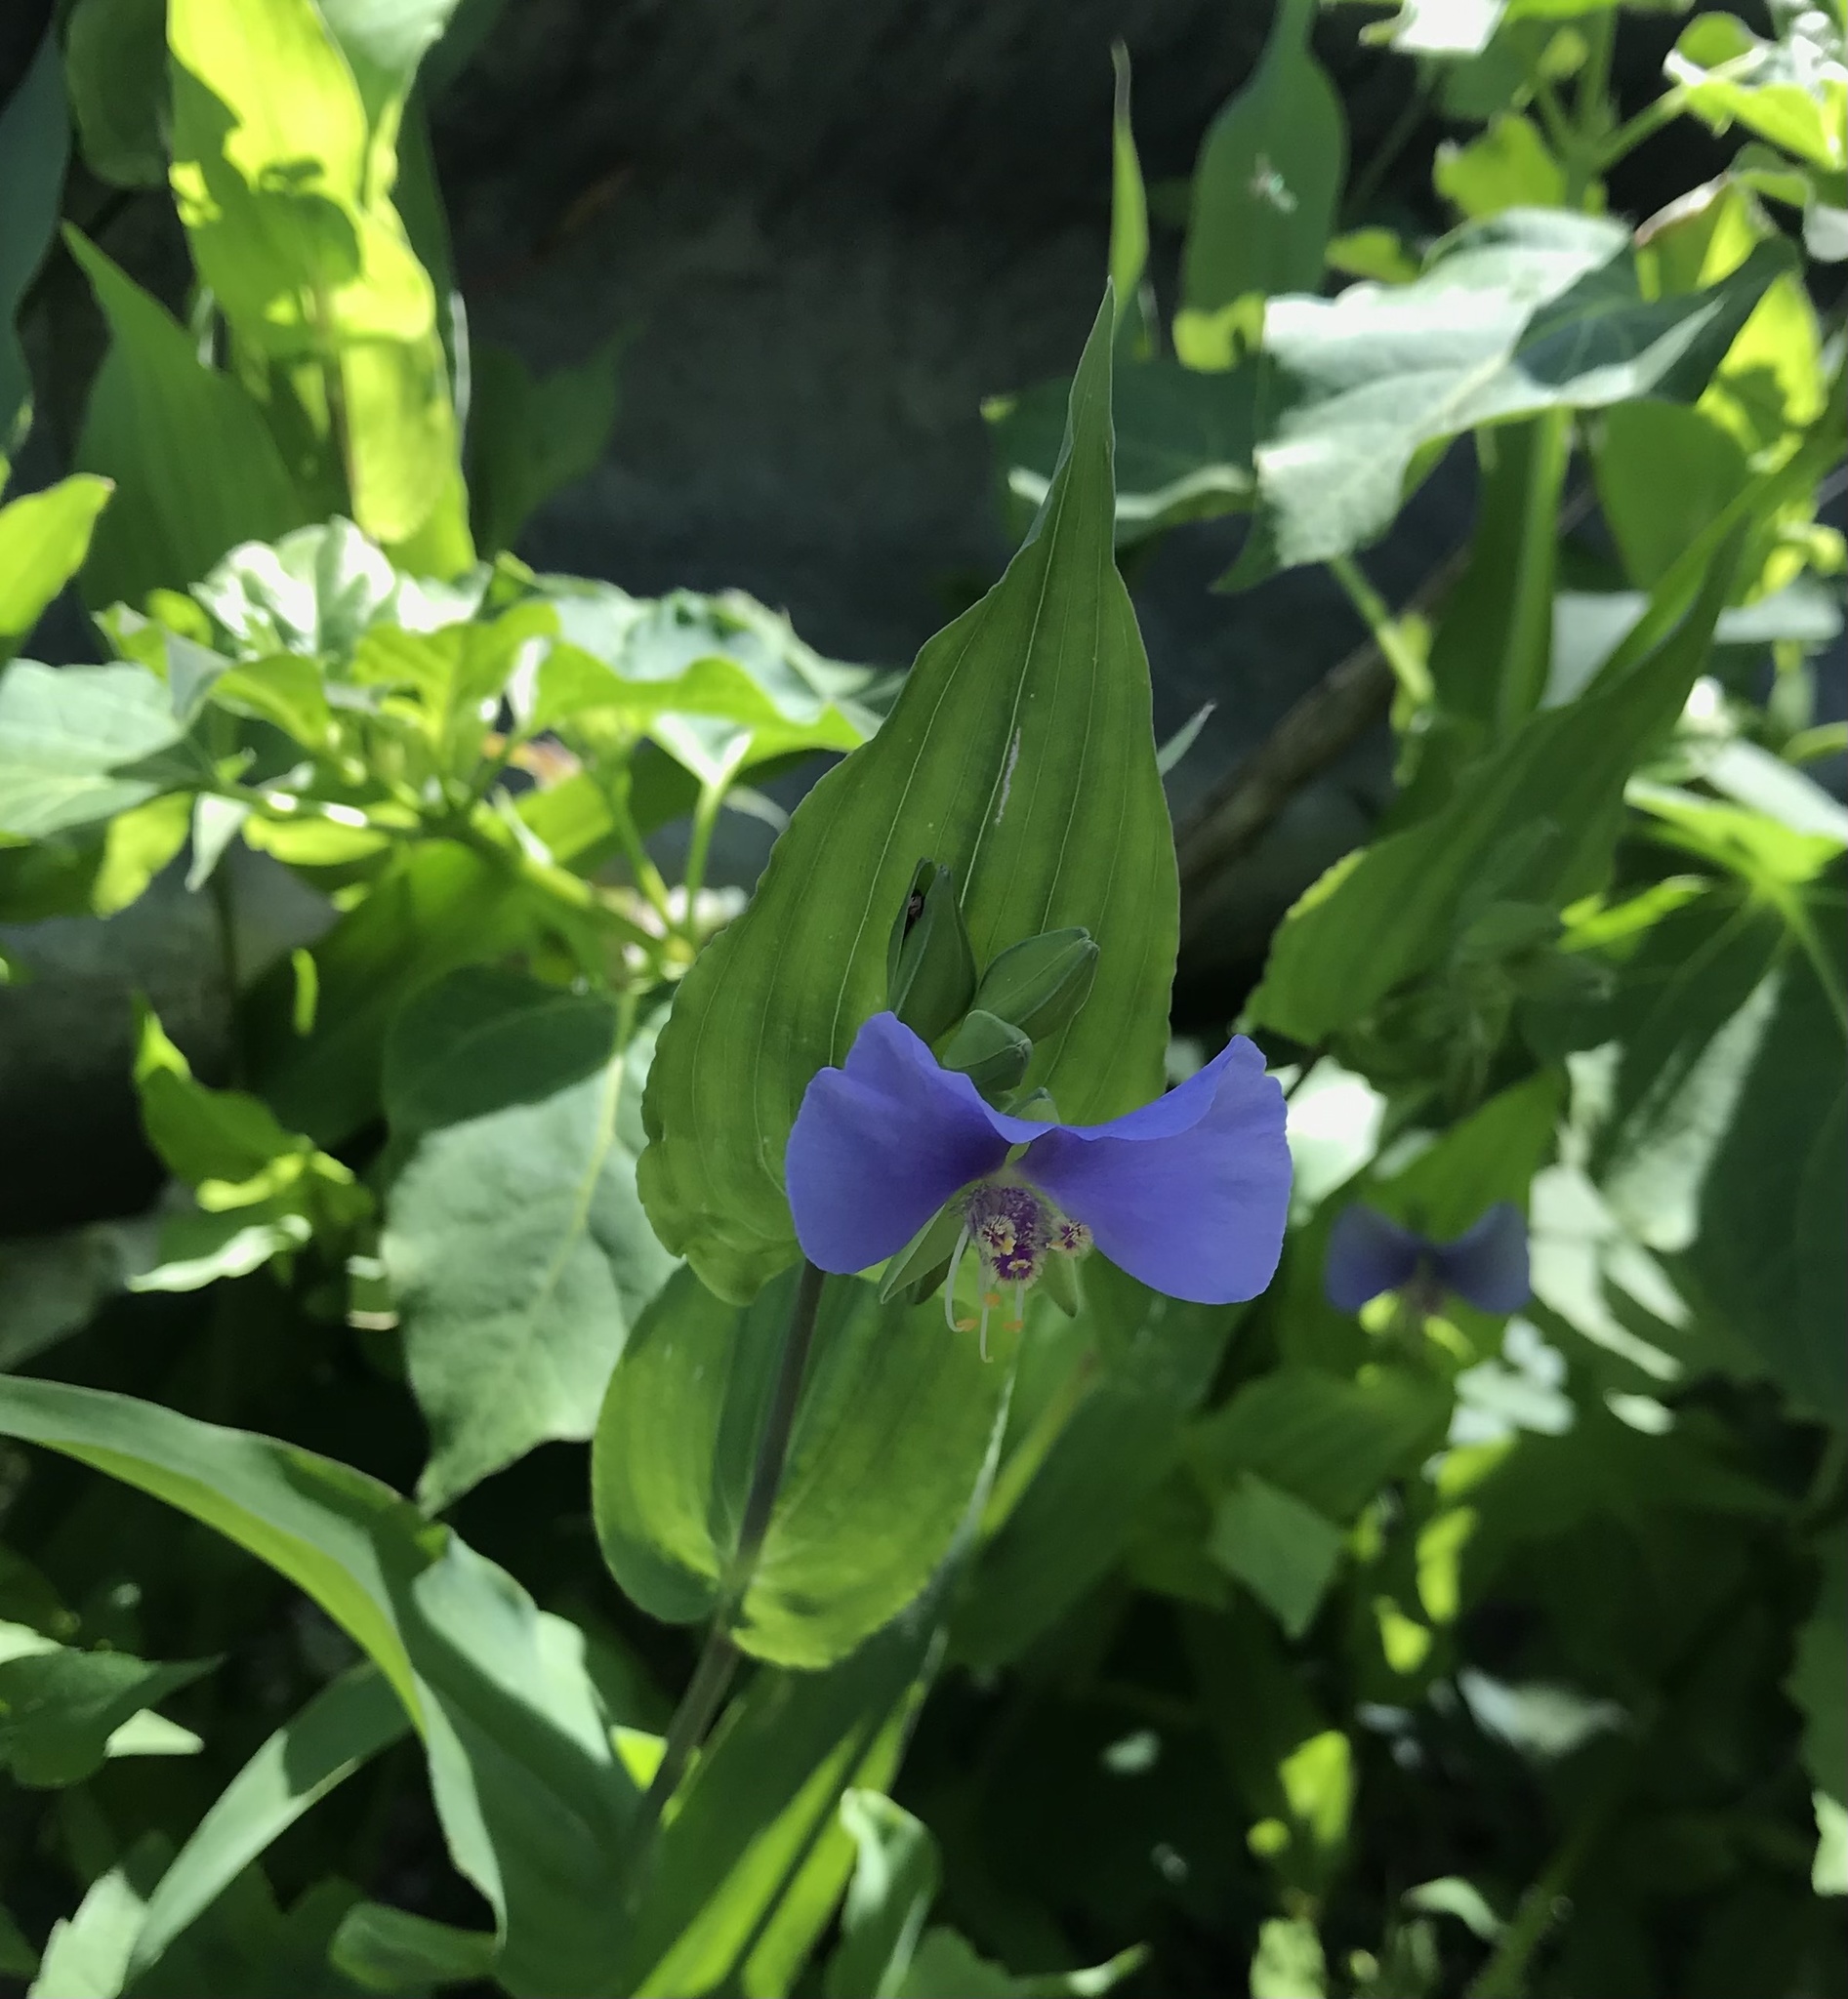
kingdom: Plantae
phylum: Tracheophyta
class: Liliopsida
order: Commelinales
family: Commelinaceae
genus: Tinantia
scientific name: Tinantia anomala
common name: False dayflower
